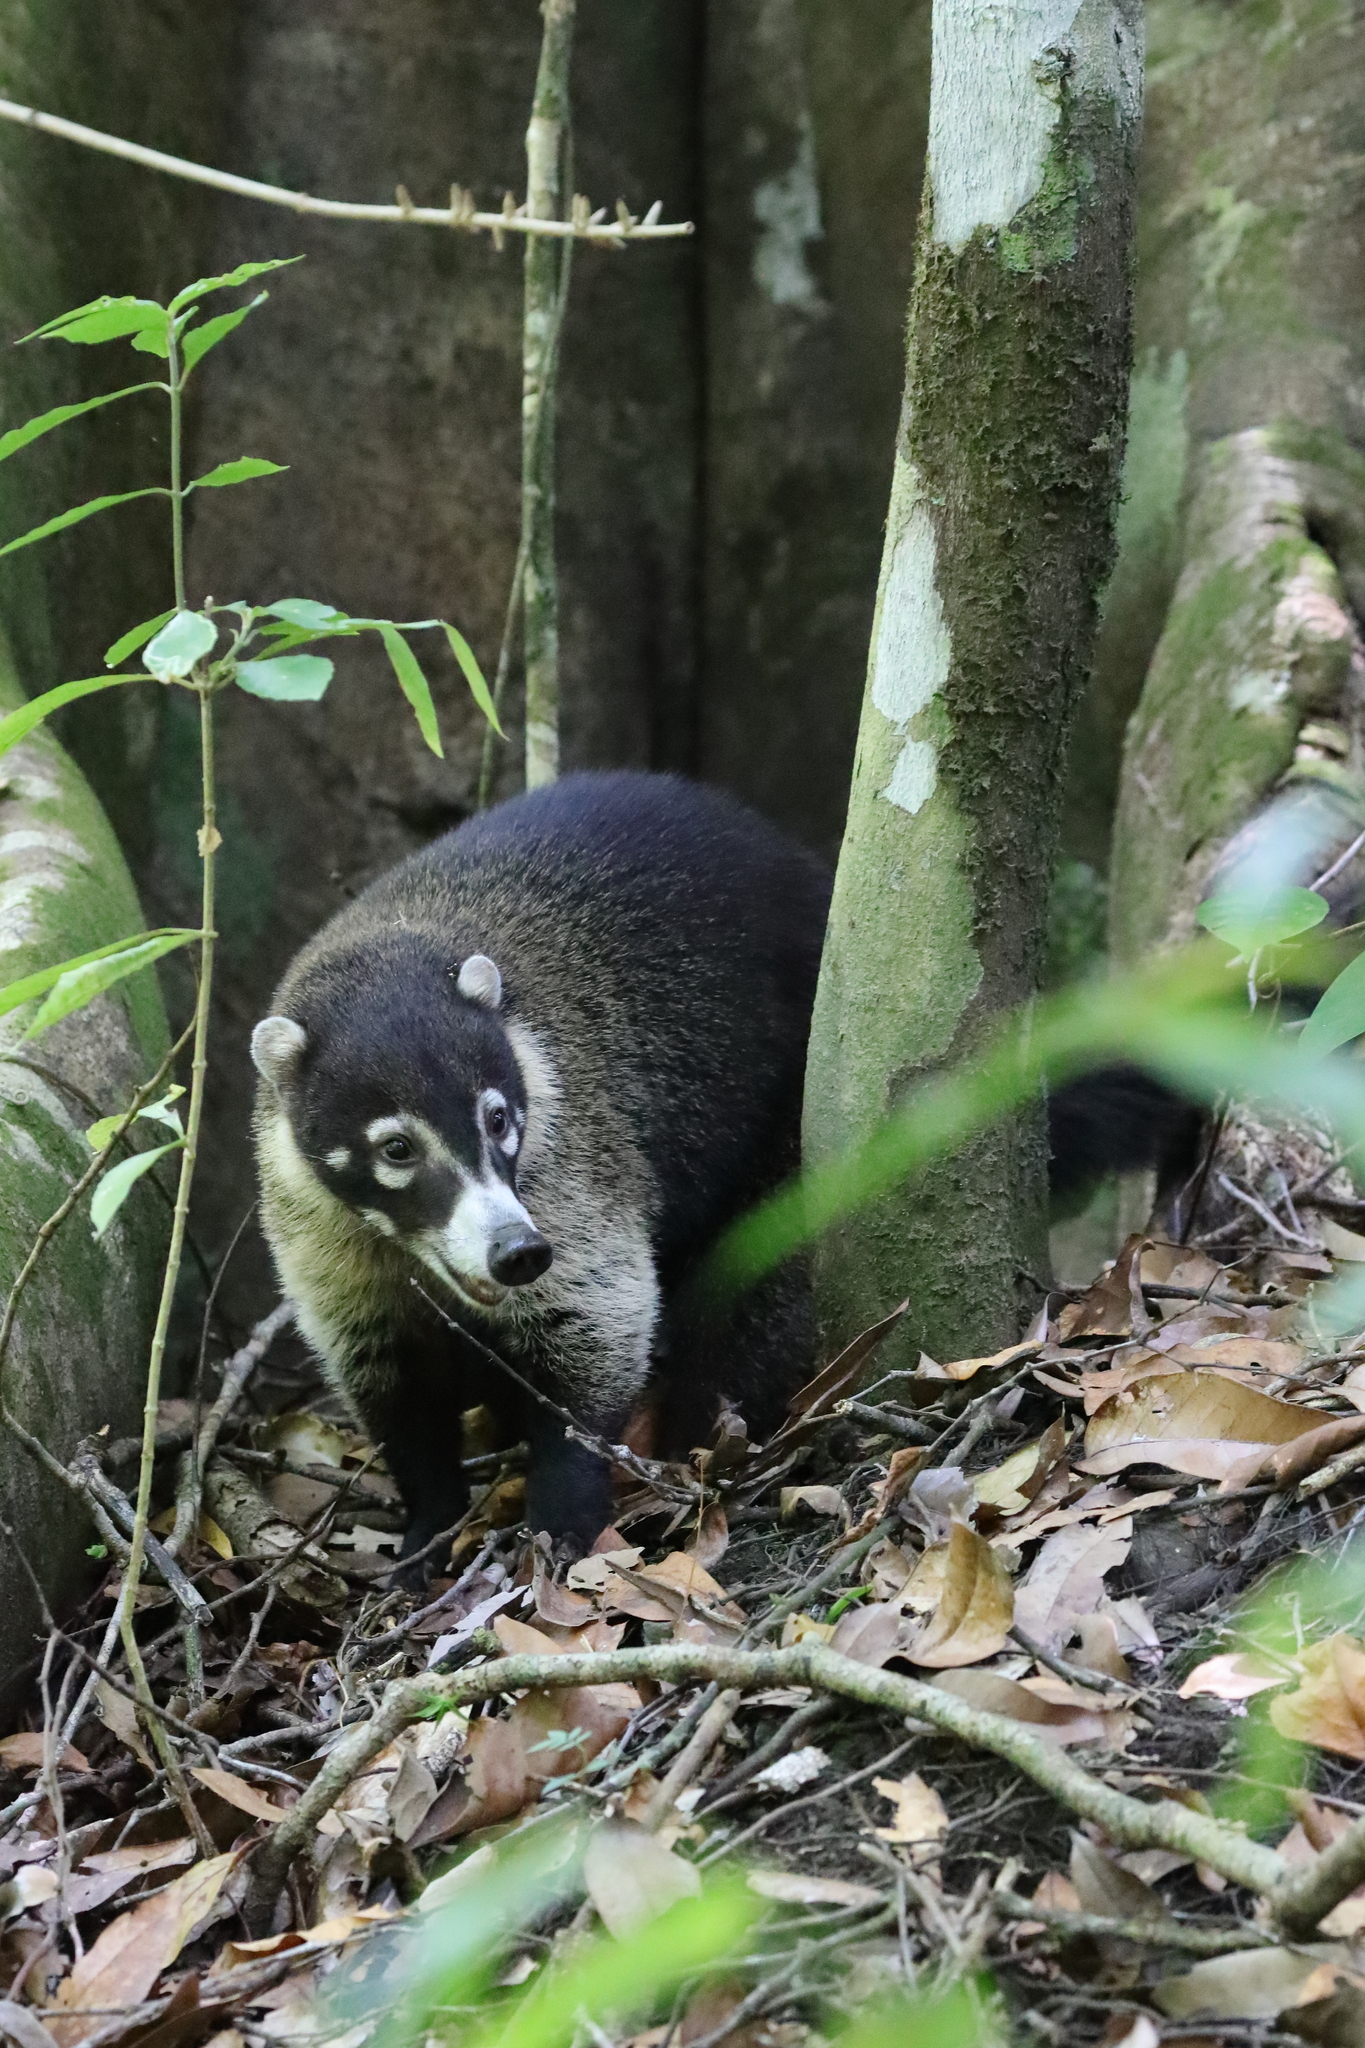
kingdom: Animalia
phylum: Chordata
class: Mammalia
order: Carnivora
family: Procyonidae
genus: Nasua
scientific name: Nasua narica
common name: White-nosed coati
